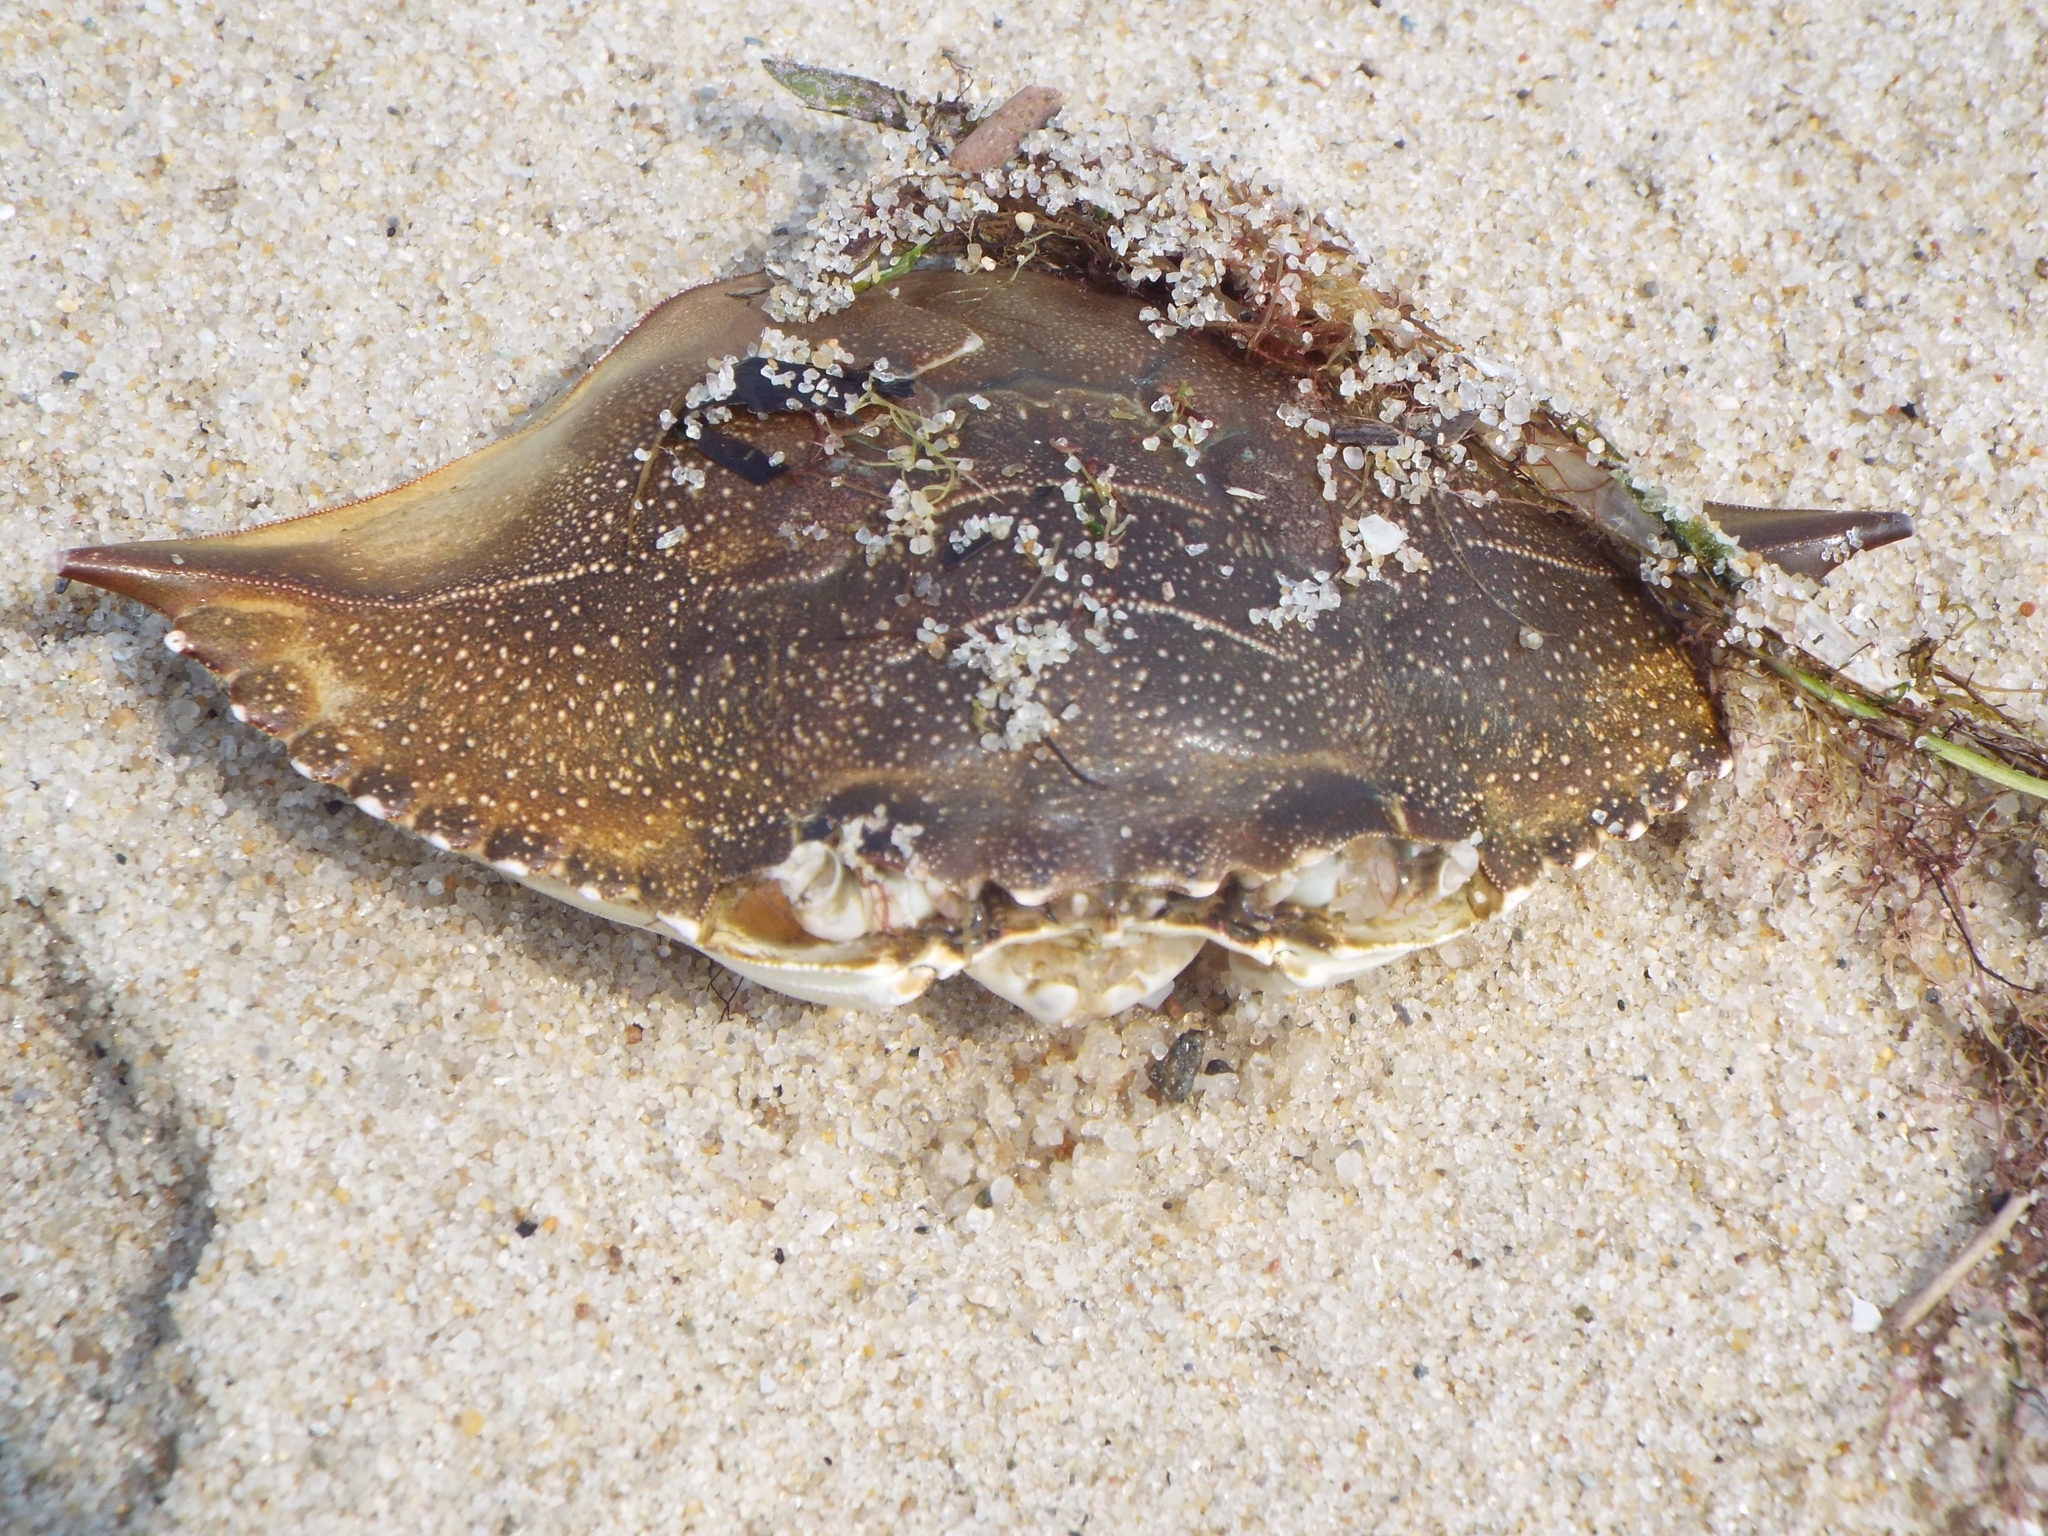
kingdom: Animalia
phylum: Arthropoda
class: Malacostraca
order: Decapoda
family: Portunidae
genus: Callinectes
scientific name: Callinectes sapidus
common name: Blue crab
